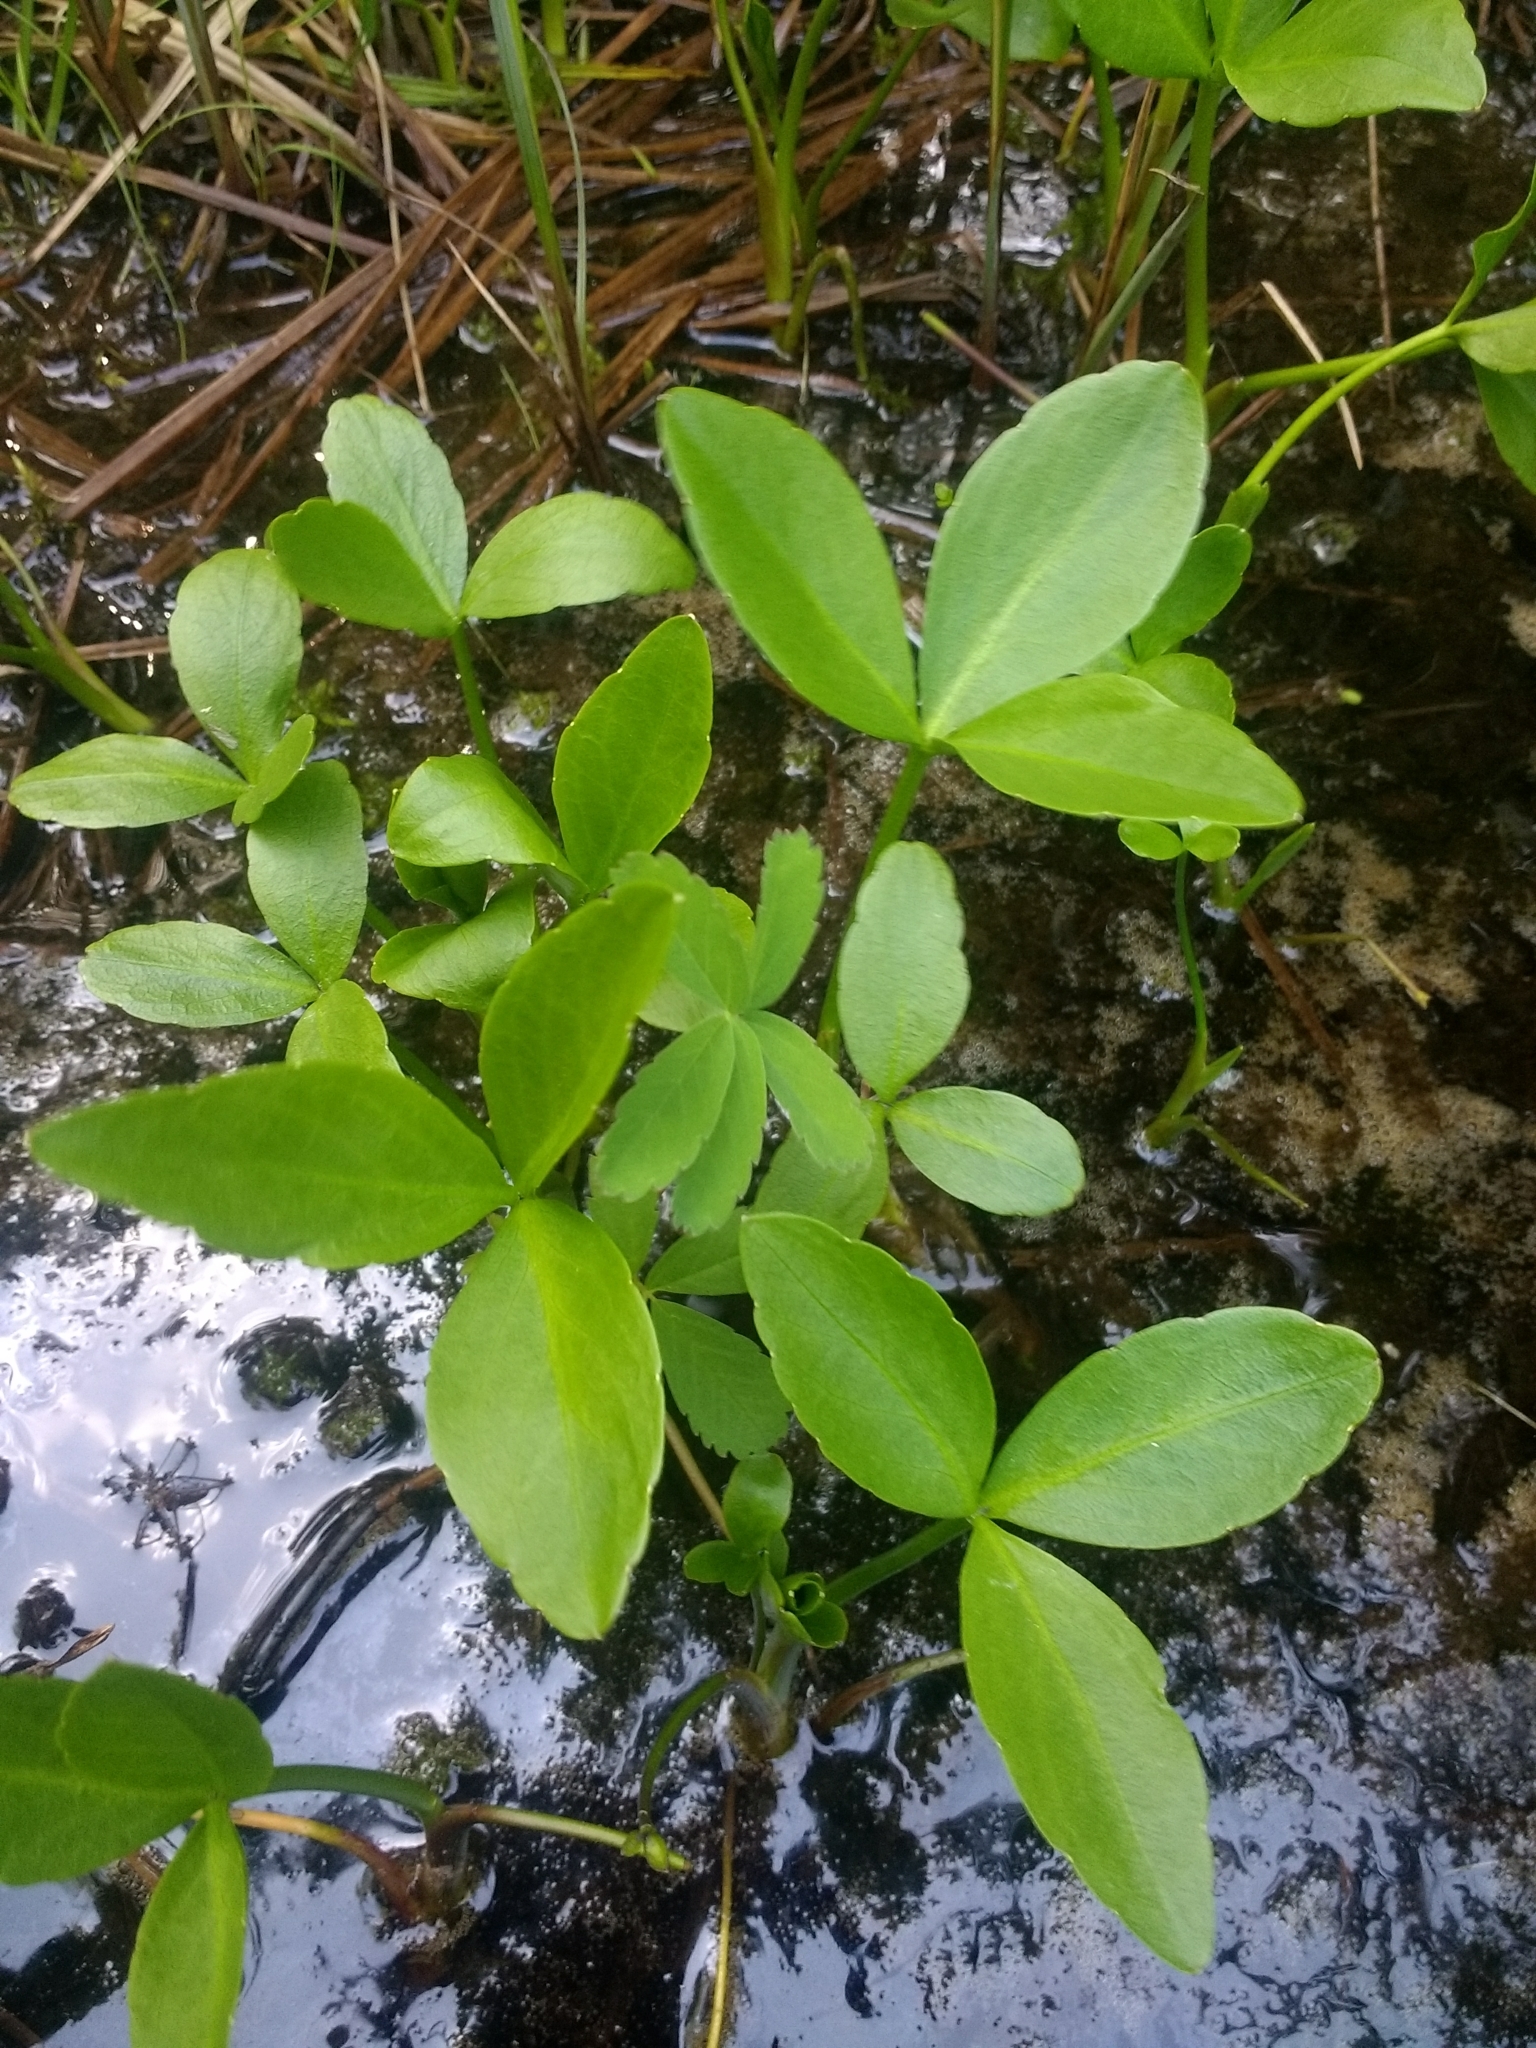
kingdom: Plantae
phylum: Tracheophyta
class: Magnoliopsida
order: Asterales
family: Menyanthaceae
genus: Menyanthes
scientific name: Menyanthes trifoliata
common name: Bogbean
